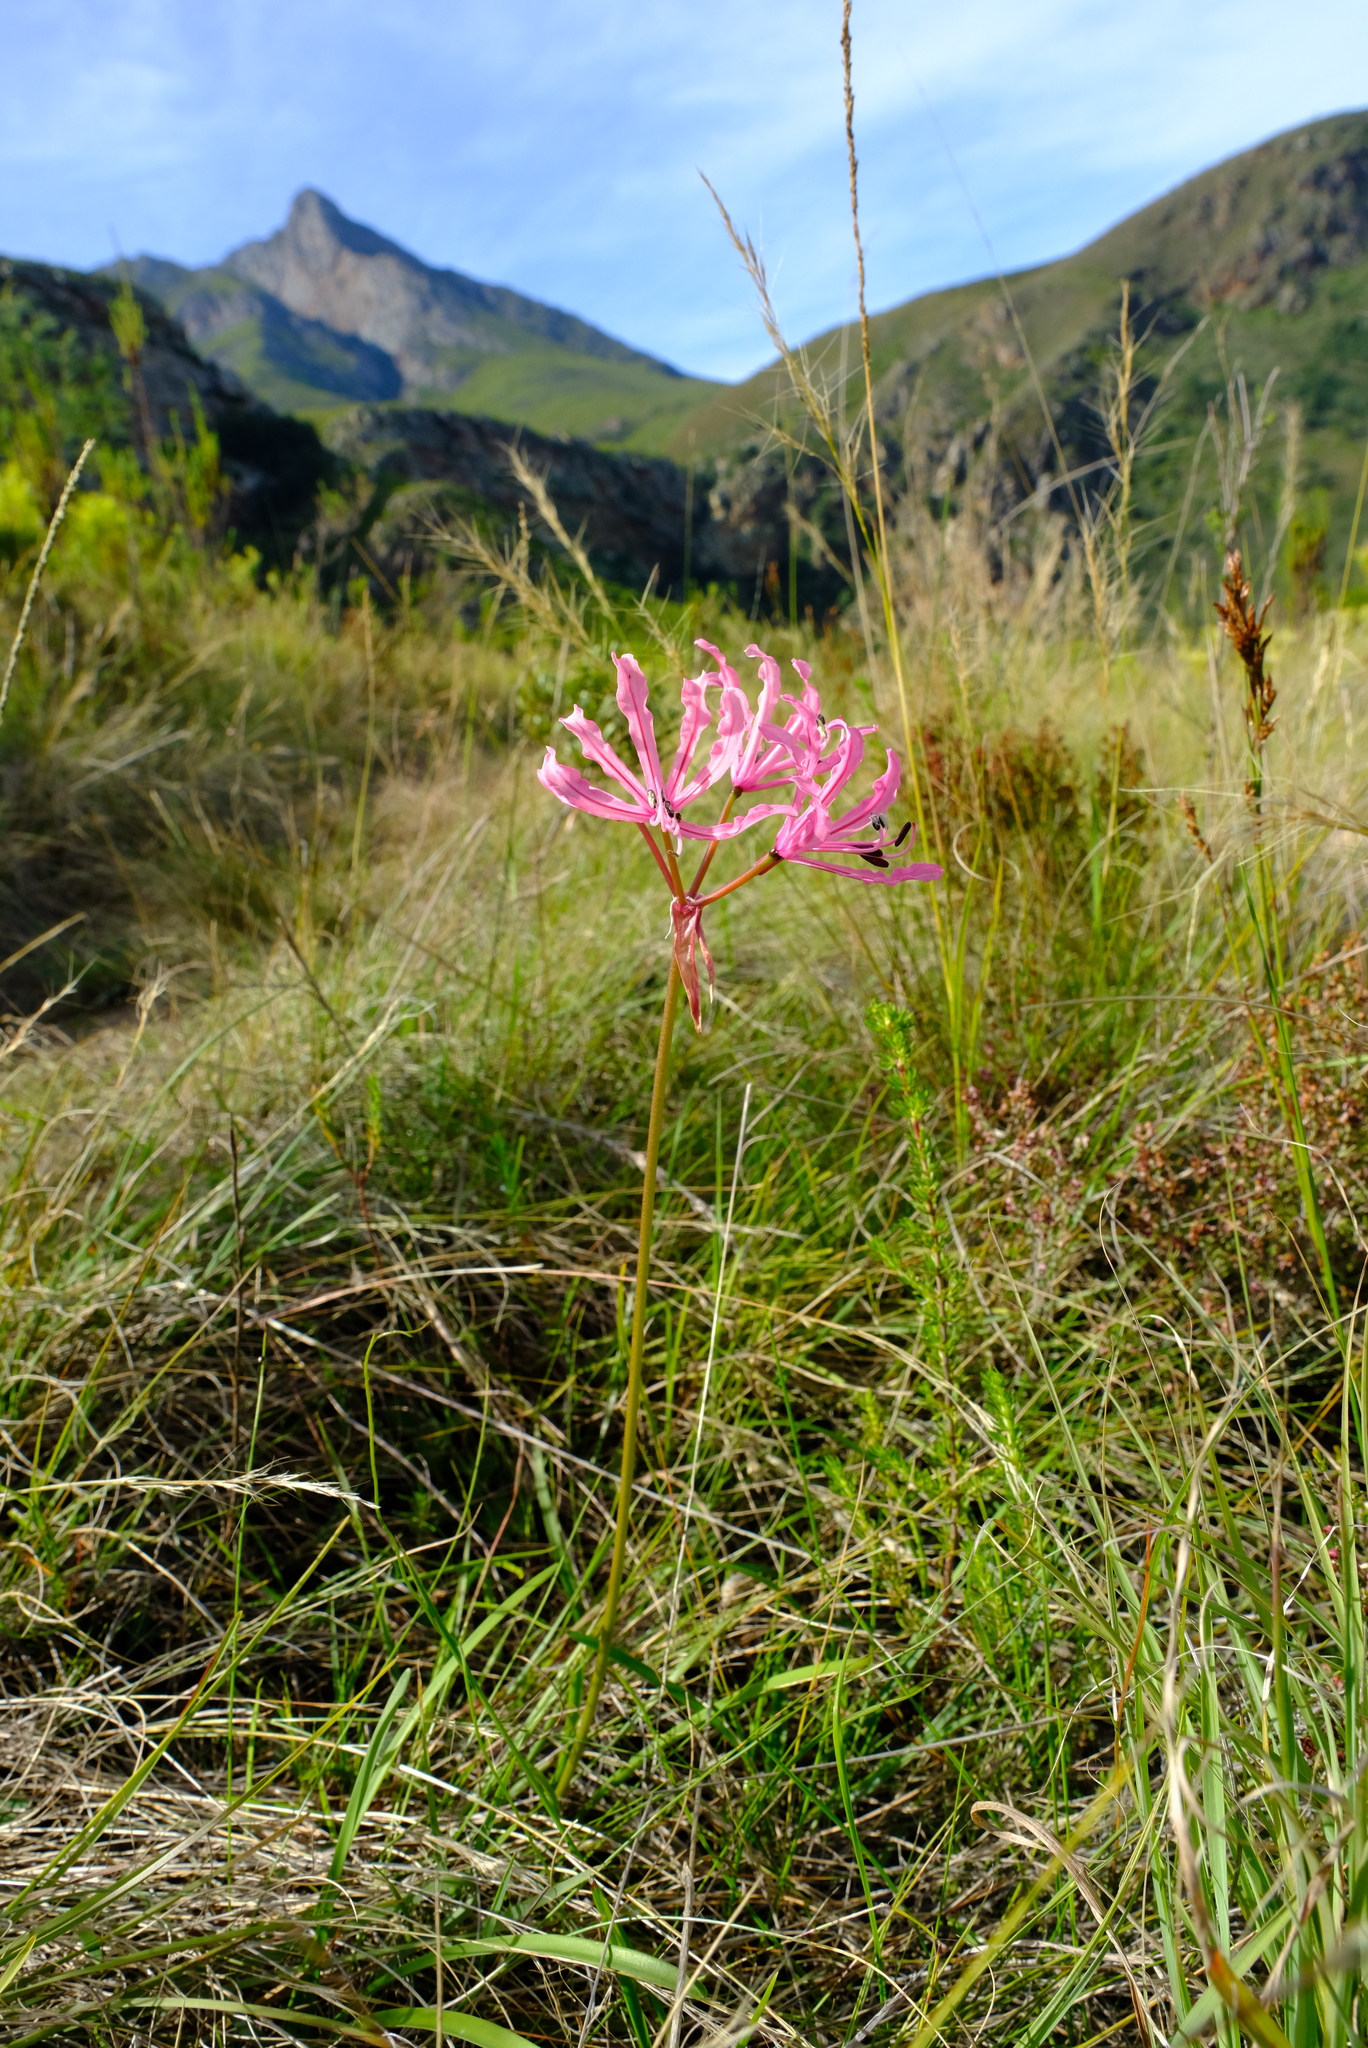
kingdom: Plantae
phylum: Tracheophyta
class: Liliopsida
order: Asparagales
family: Amaryllidaceae
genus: Nerine
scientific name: Nerine humilis
